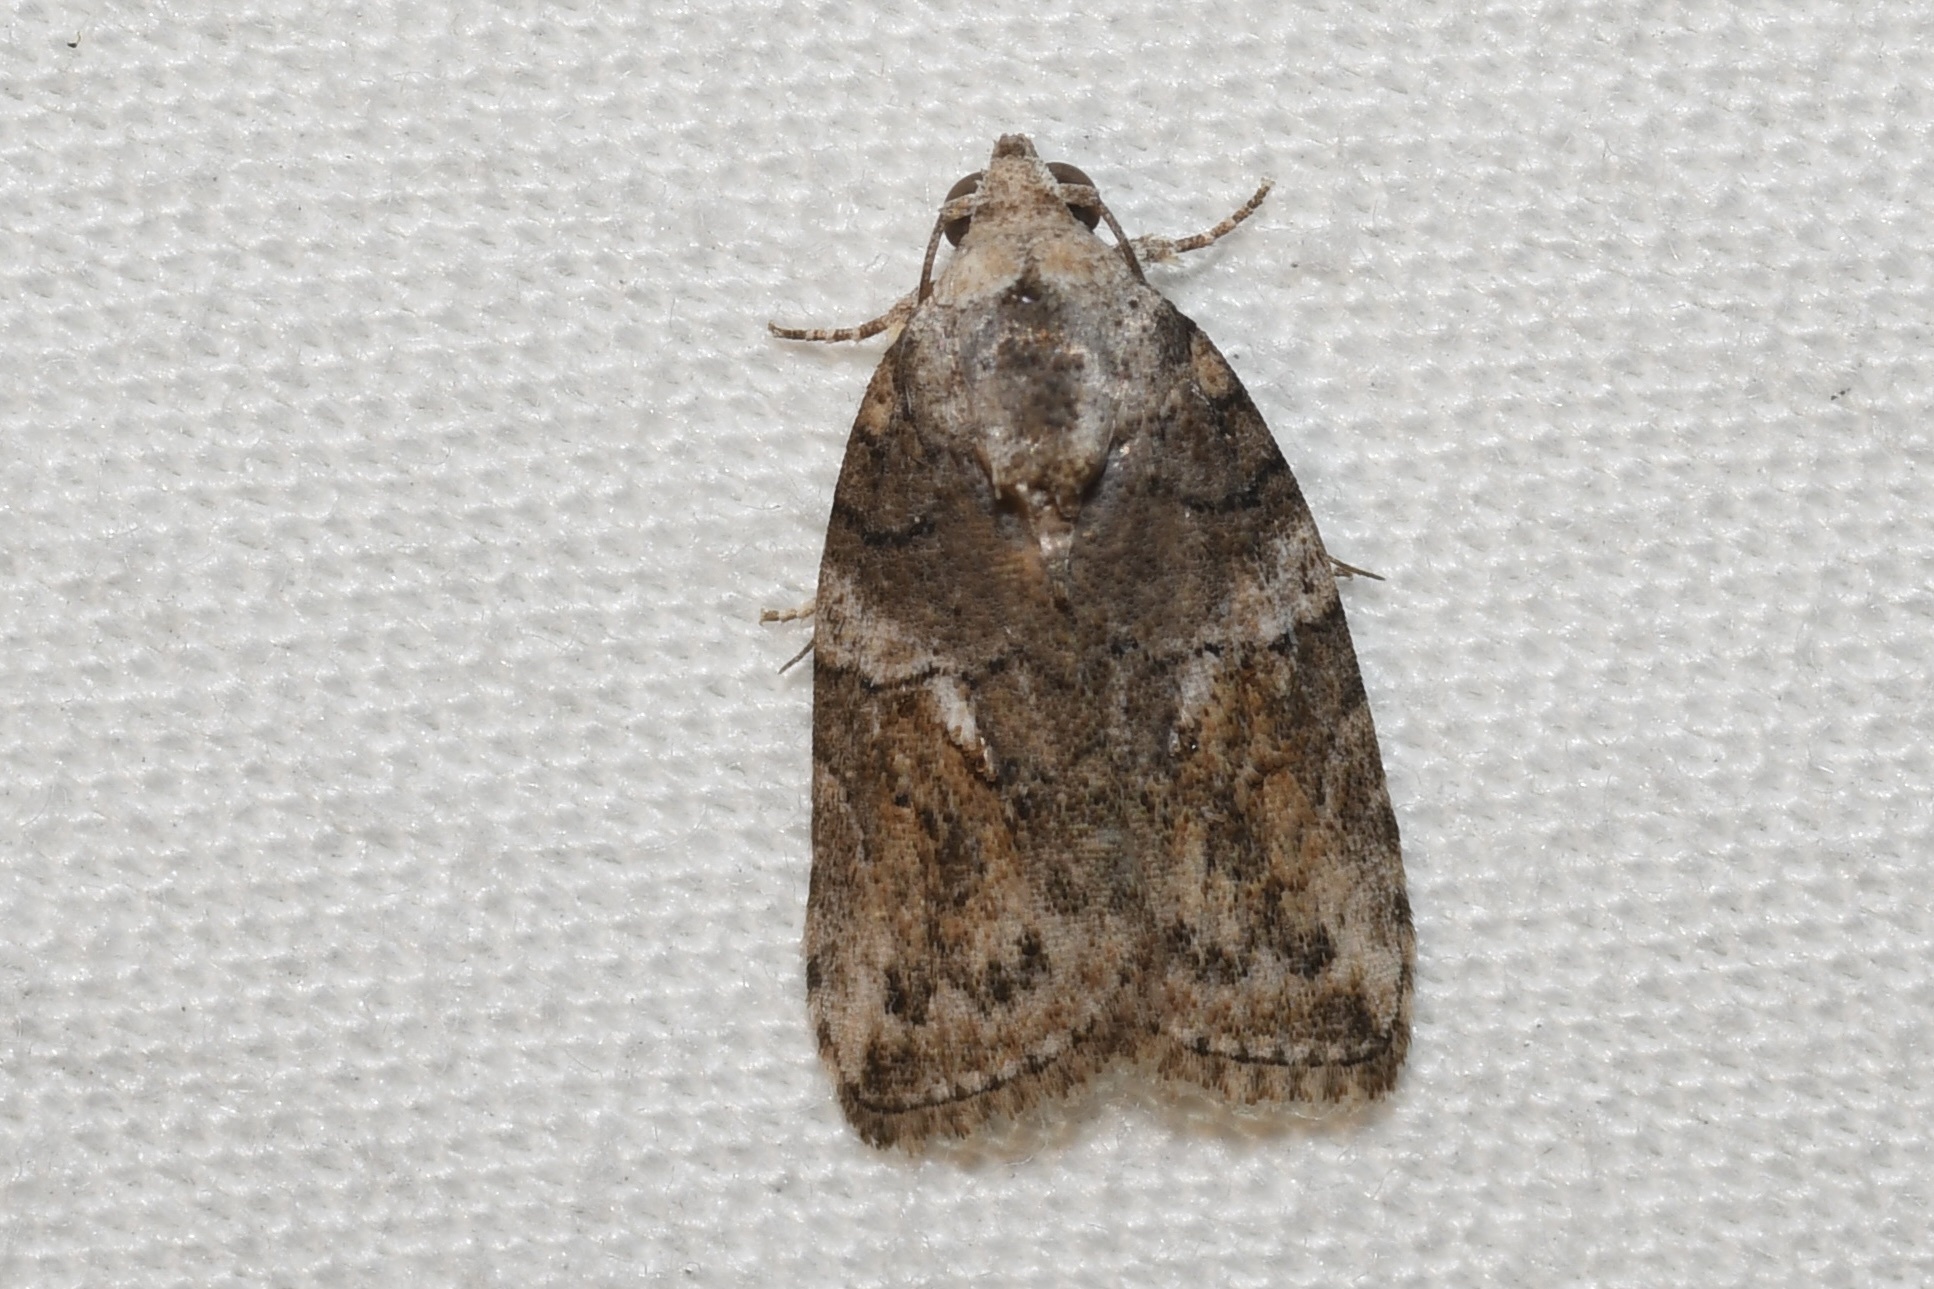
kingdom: Animalia
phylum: Arthropoda
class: Insecta
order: Lepidoptera
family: Nolidae
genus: Garella
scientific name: Garella nilotica
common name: Black-olive caterpillar moth
